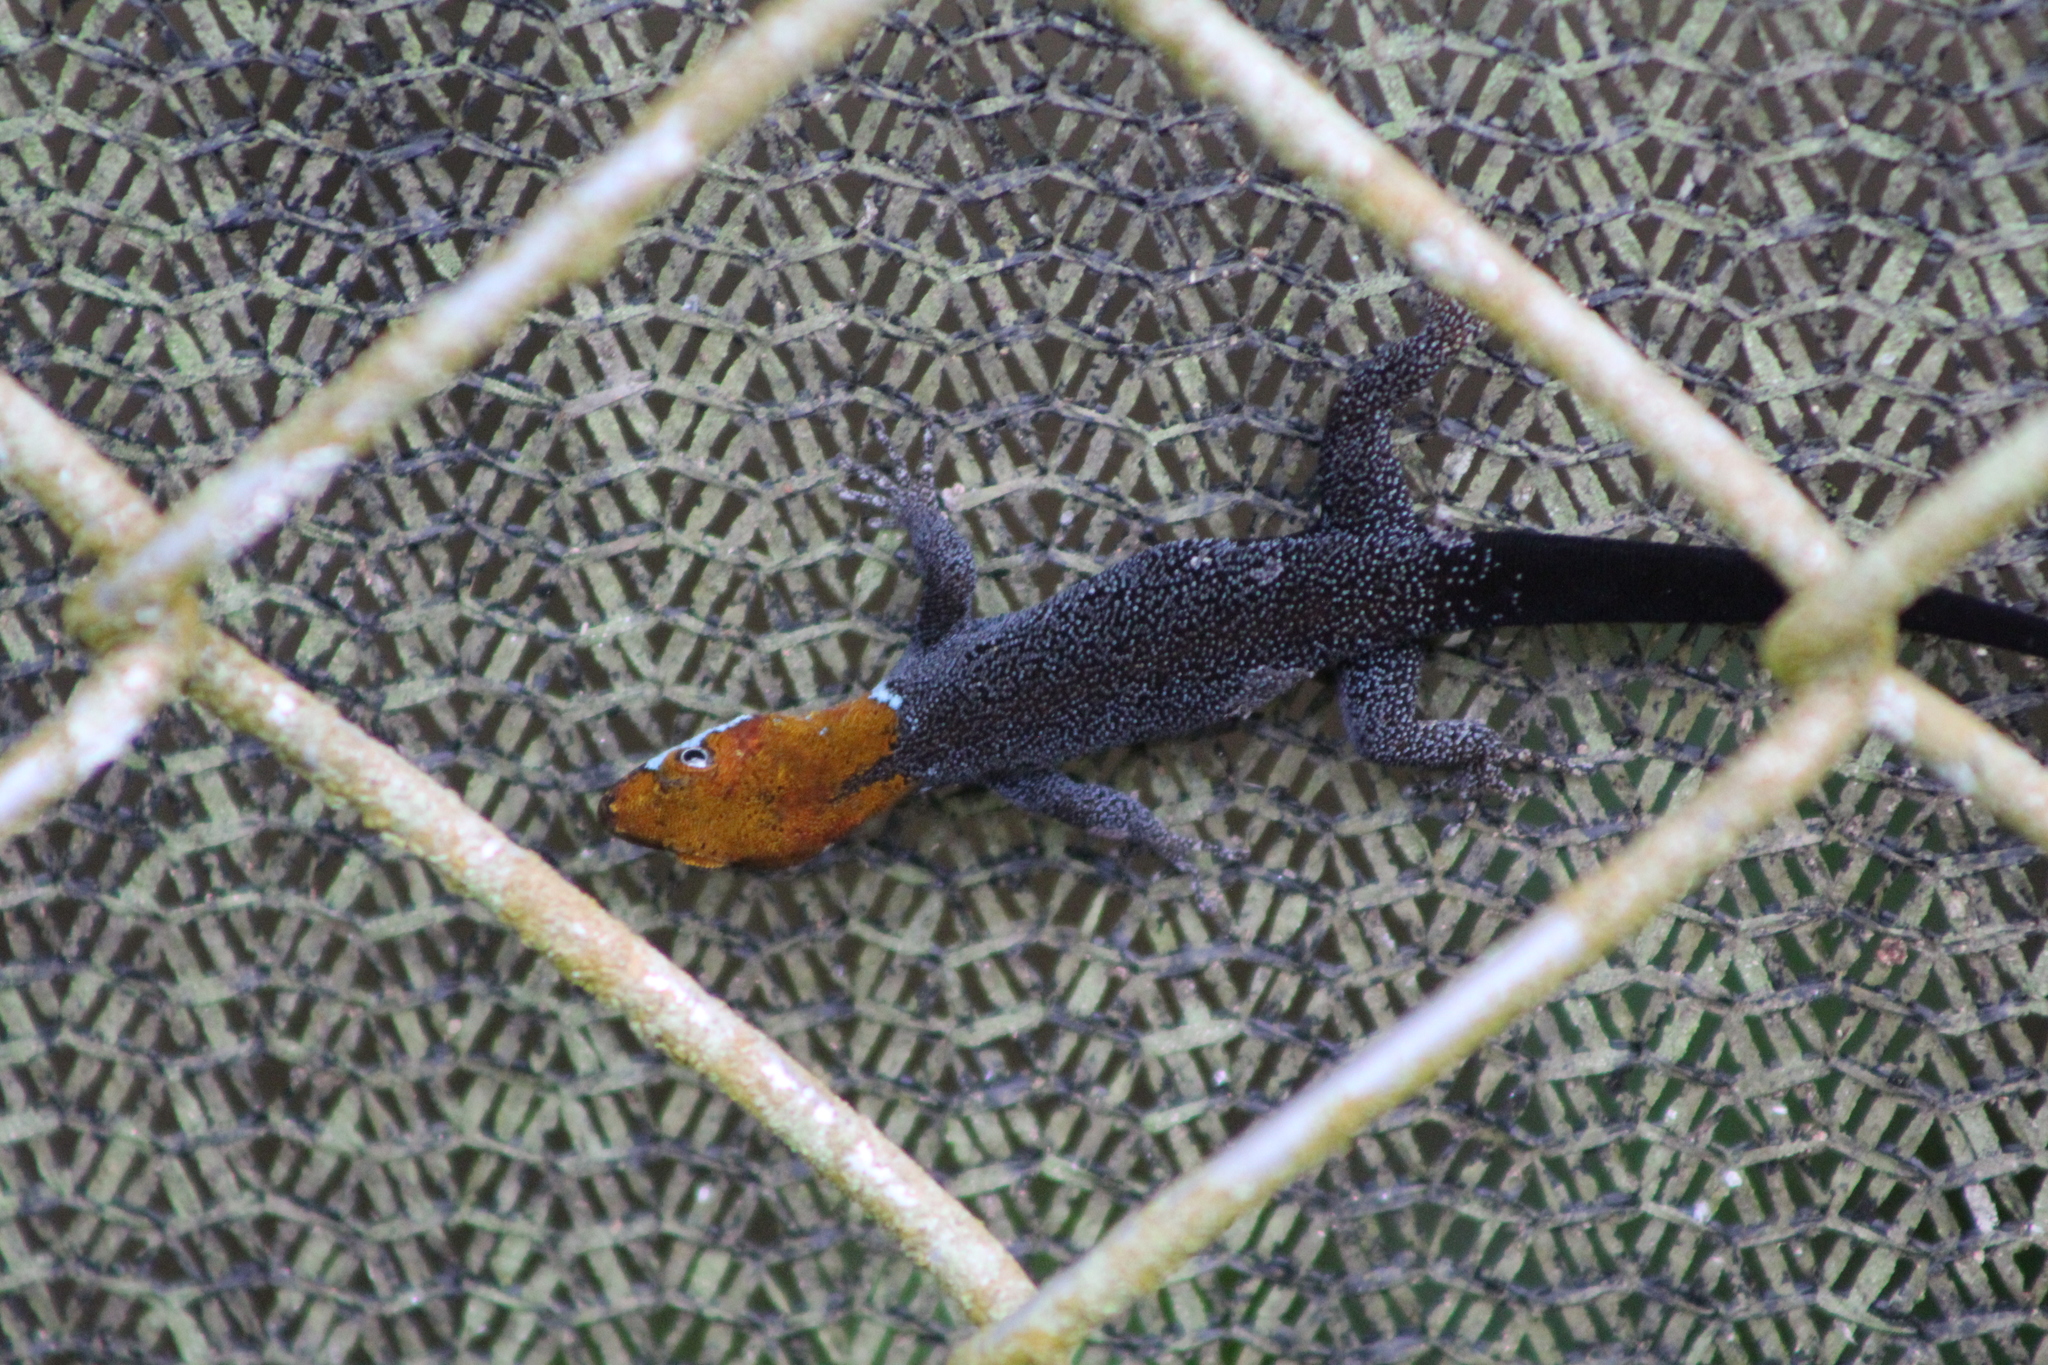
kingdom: Animalia
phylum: Chordata
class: Squamata
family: Sphaerodactylidae
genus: Gonatodes
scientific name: Gonatodes albogularis
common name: Yellow-headed gecko
